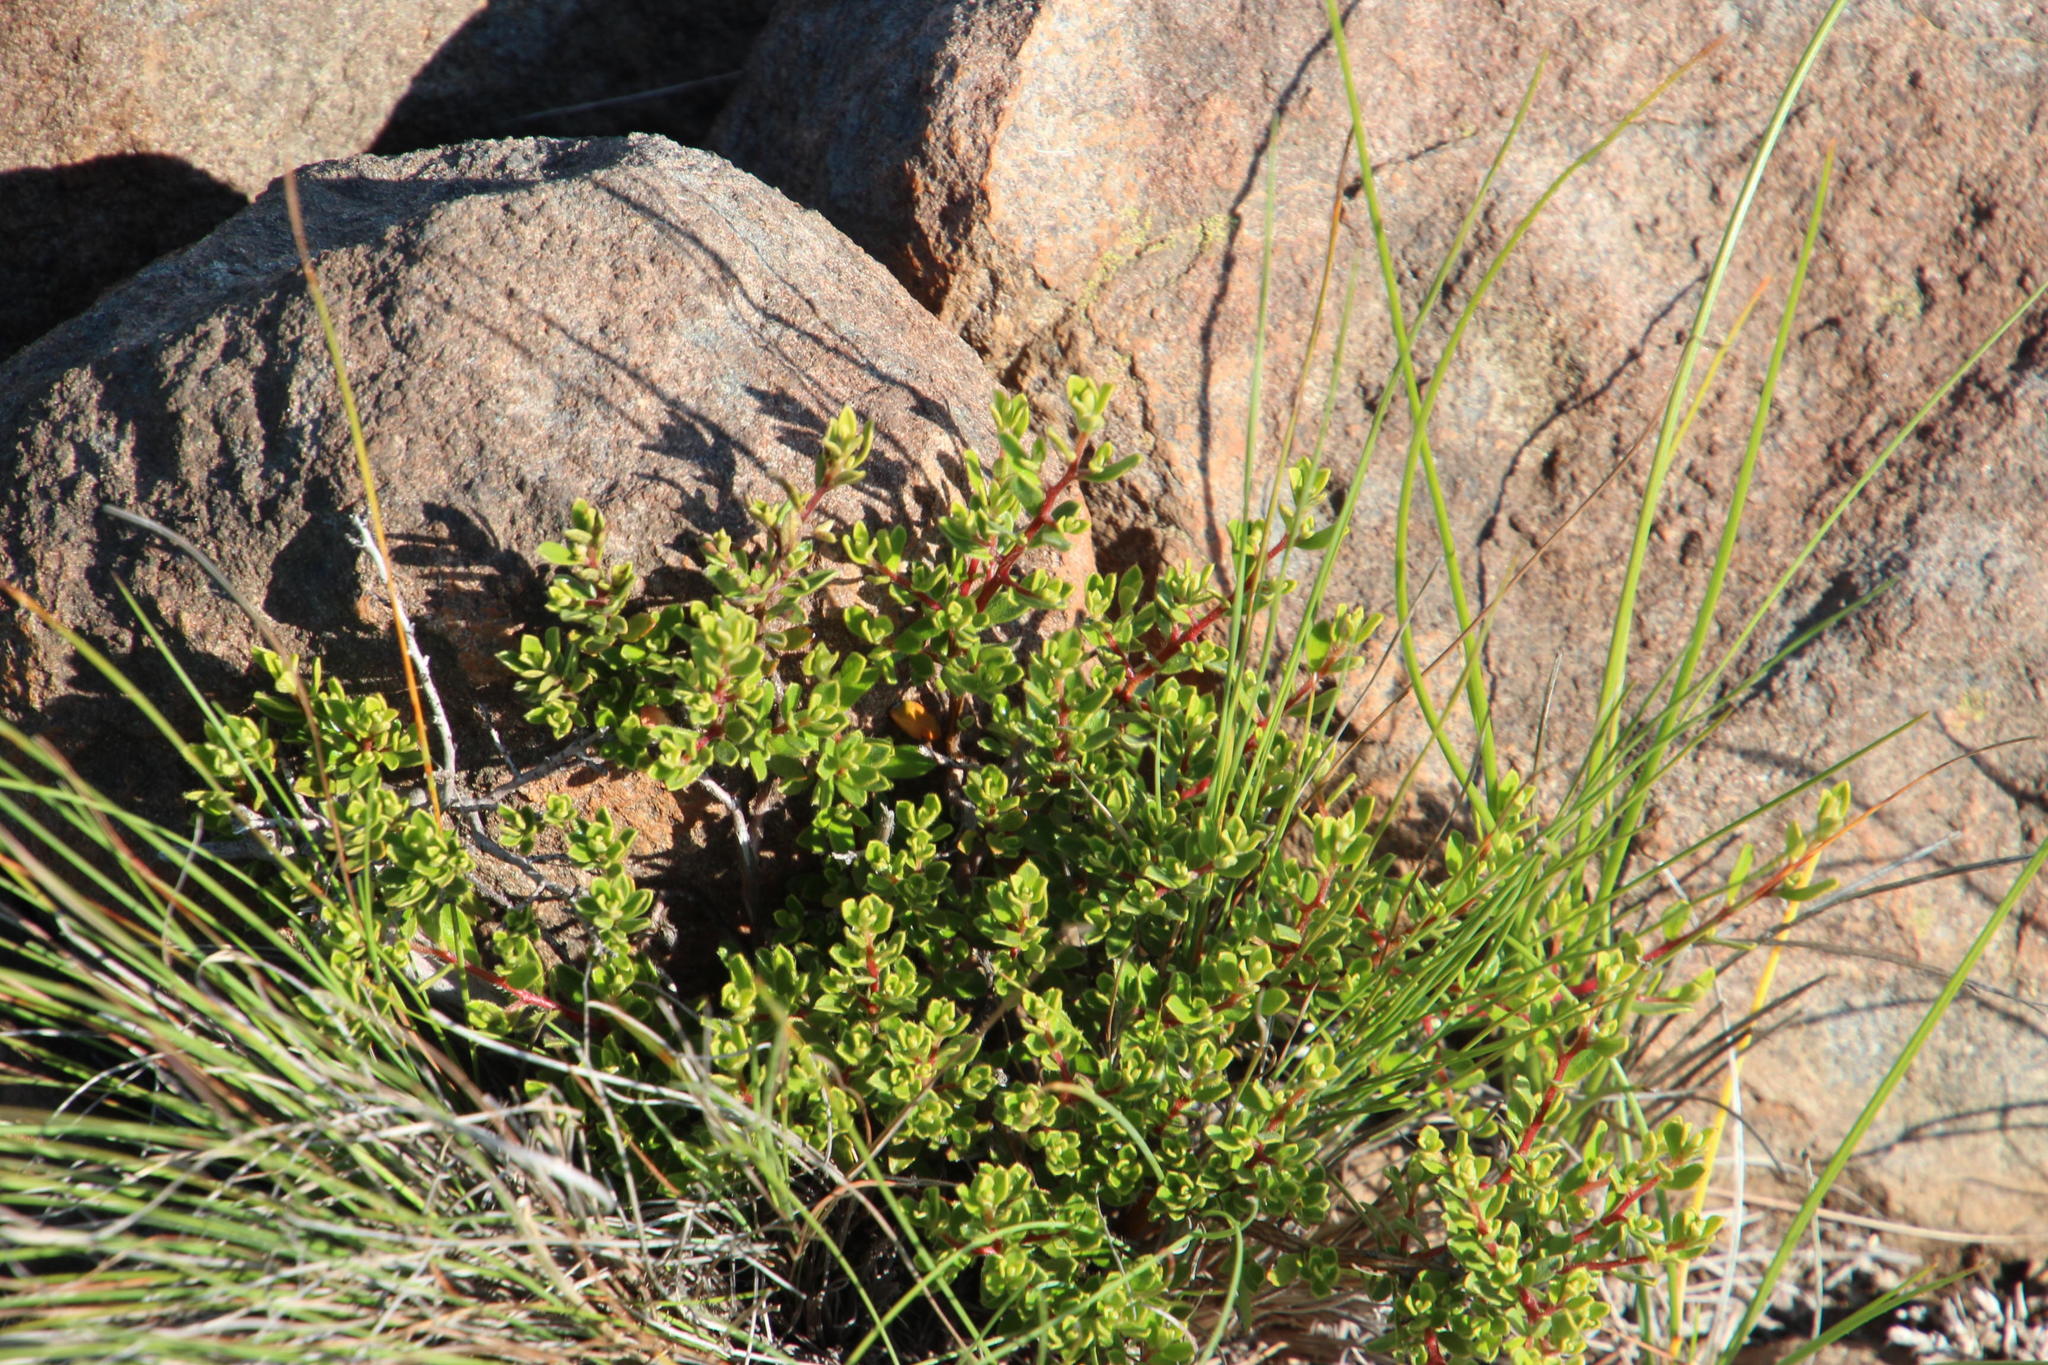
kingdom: Plantae
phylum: Tracheophyta
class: Magnoliopsida
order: Ericales
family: Ebenaceae
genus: Diospyros
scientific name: Diospyros pubescens
